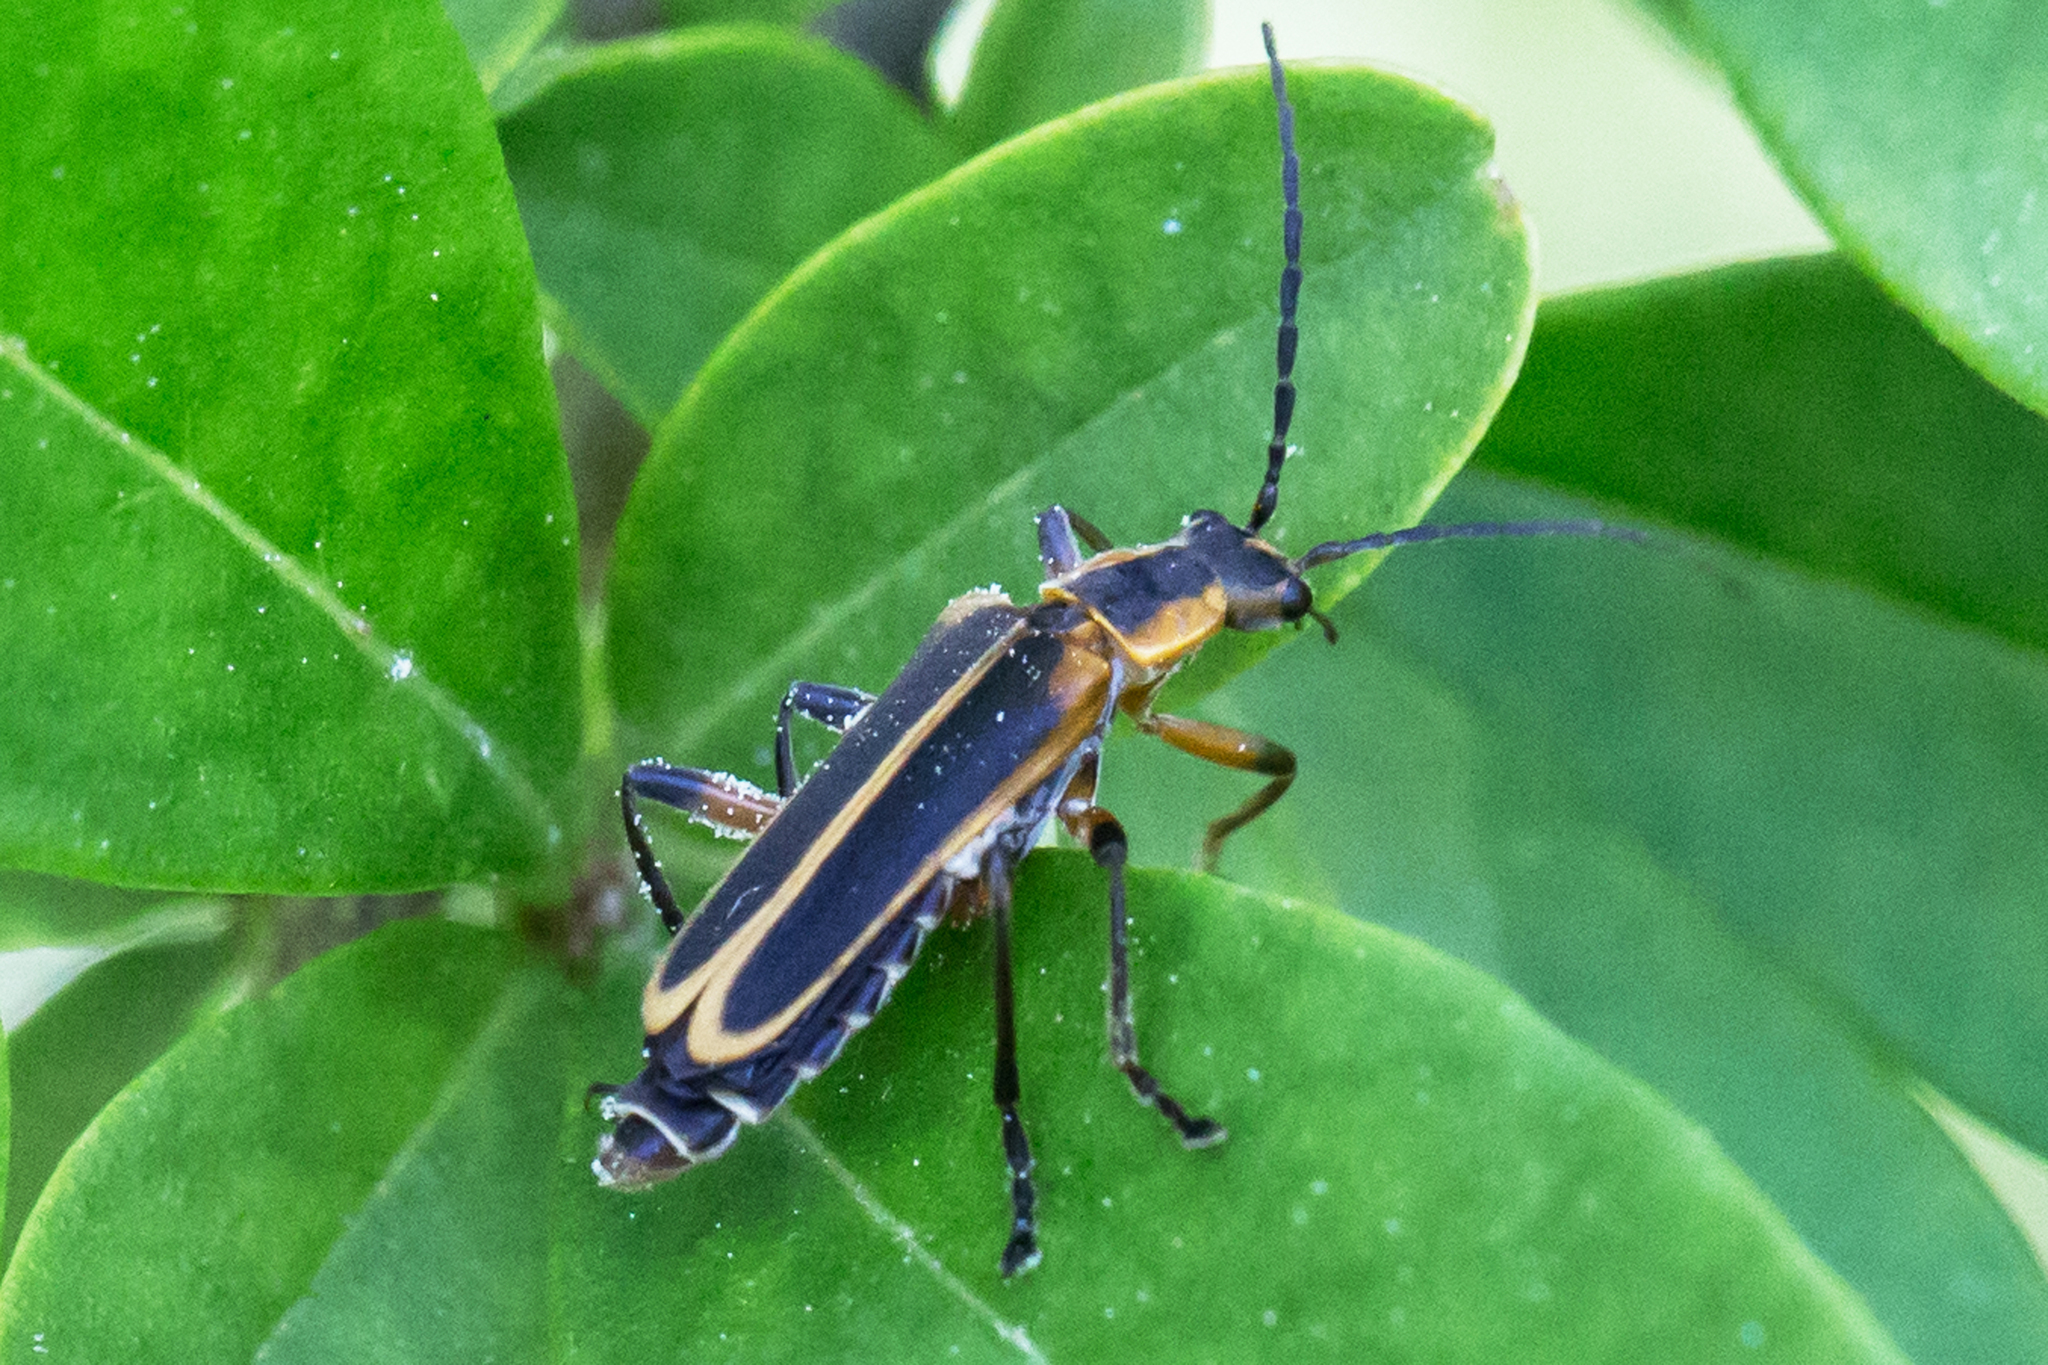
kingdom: Animalia
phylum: Arthropoda
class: Insecta
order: Coleoptera
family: Cantharidae
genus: Chauliognathus
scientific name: Chauliognathus marginatus
